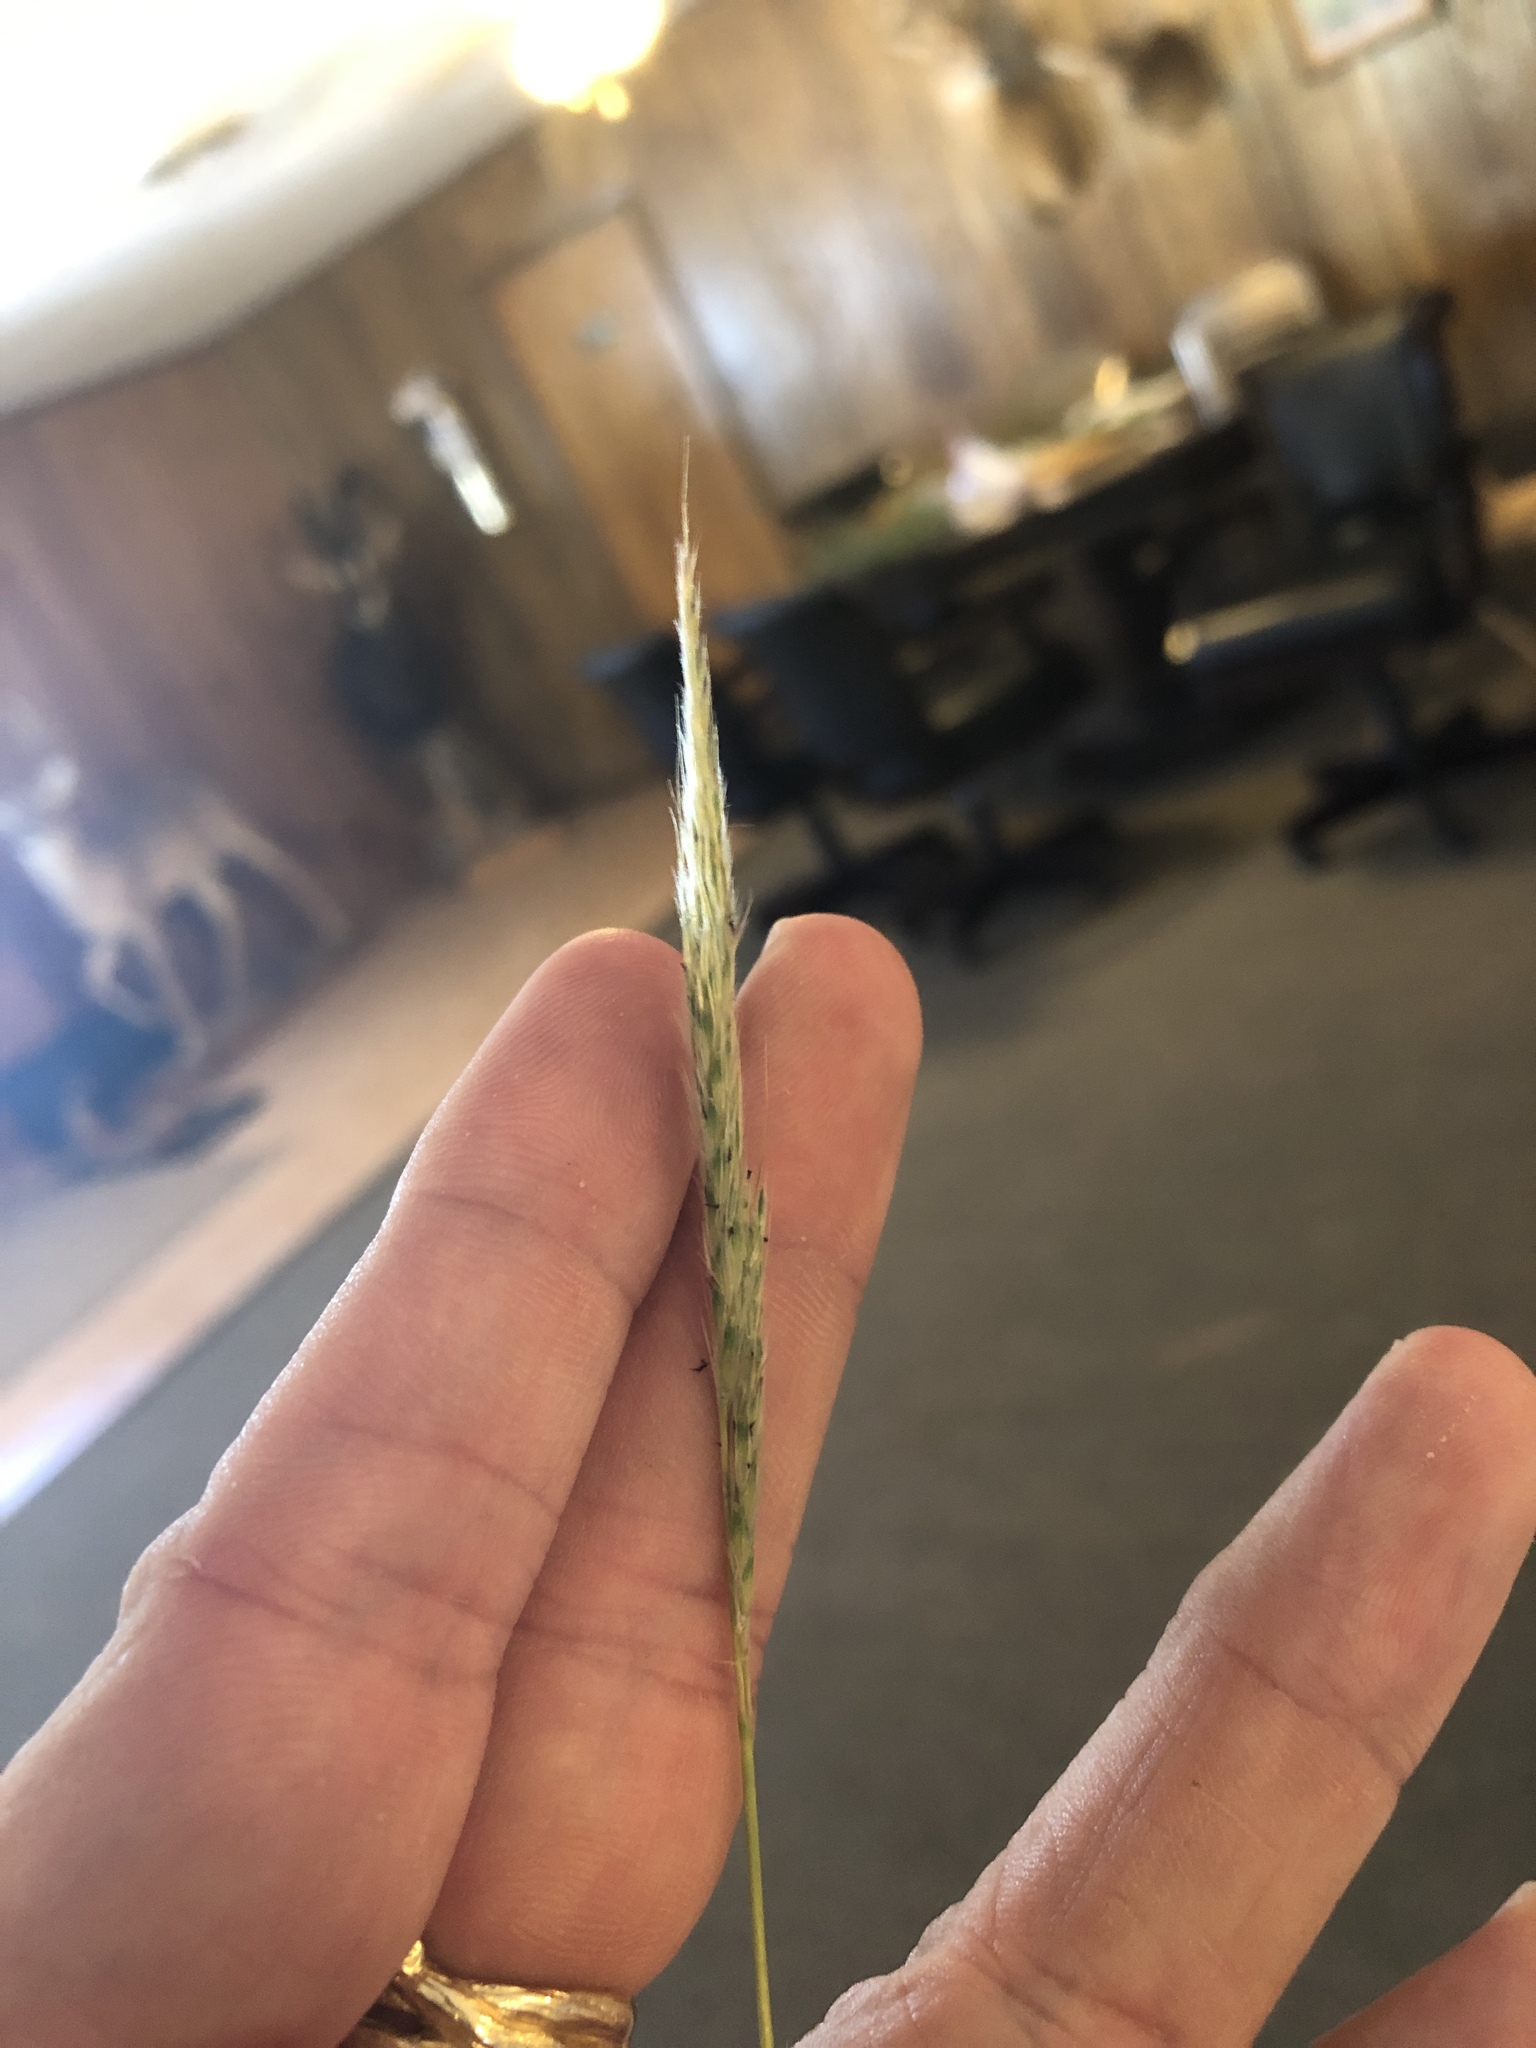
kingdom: Plantae
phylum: Tracheophyta
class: Liliopsida
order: Poales
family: Poaceae
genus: Bothriochloa
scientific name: Bothriochloa torreyana
